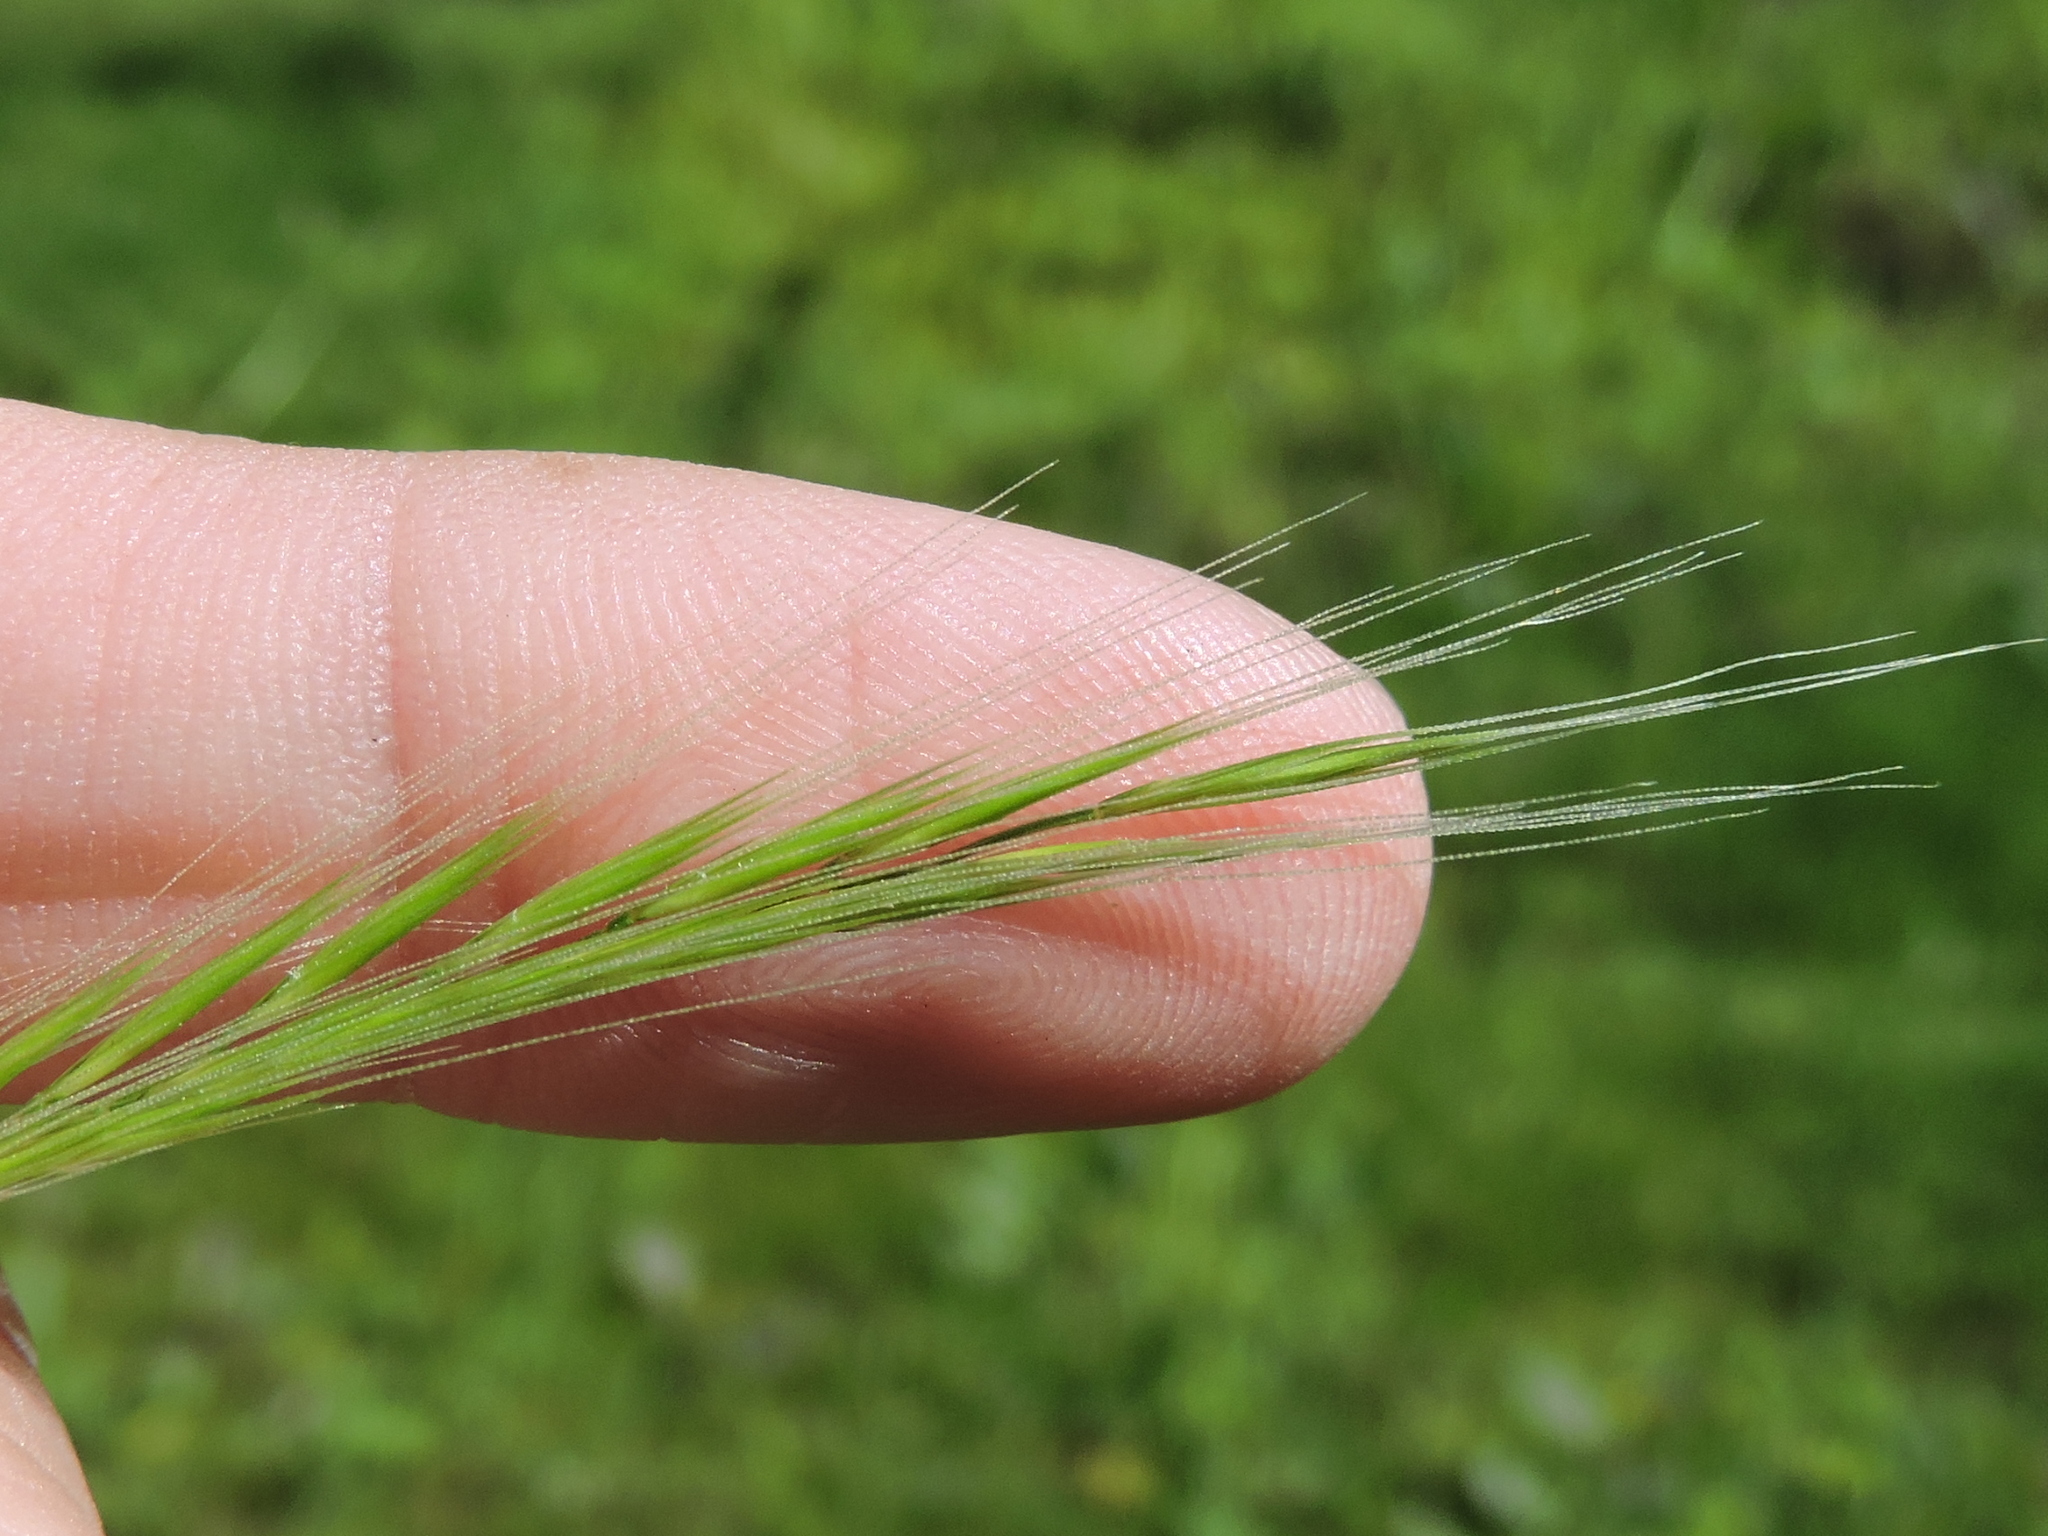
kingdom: Plantae
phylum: Tracheophyta
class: Liliopsida
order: Poales
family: Poaceae
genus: Festuca
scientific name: Festuca myuros
